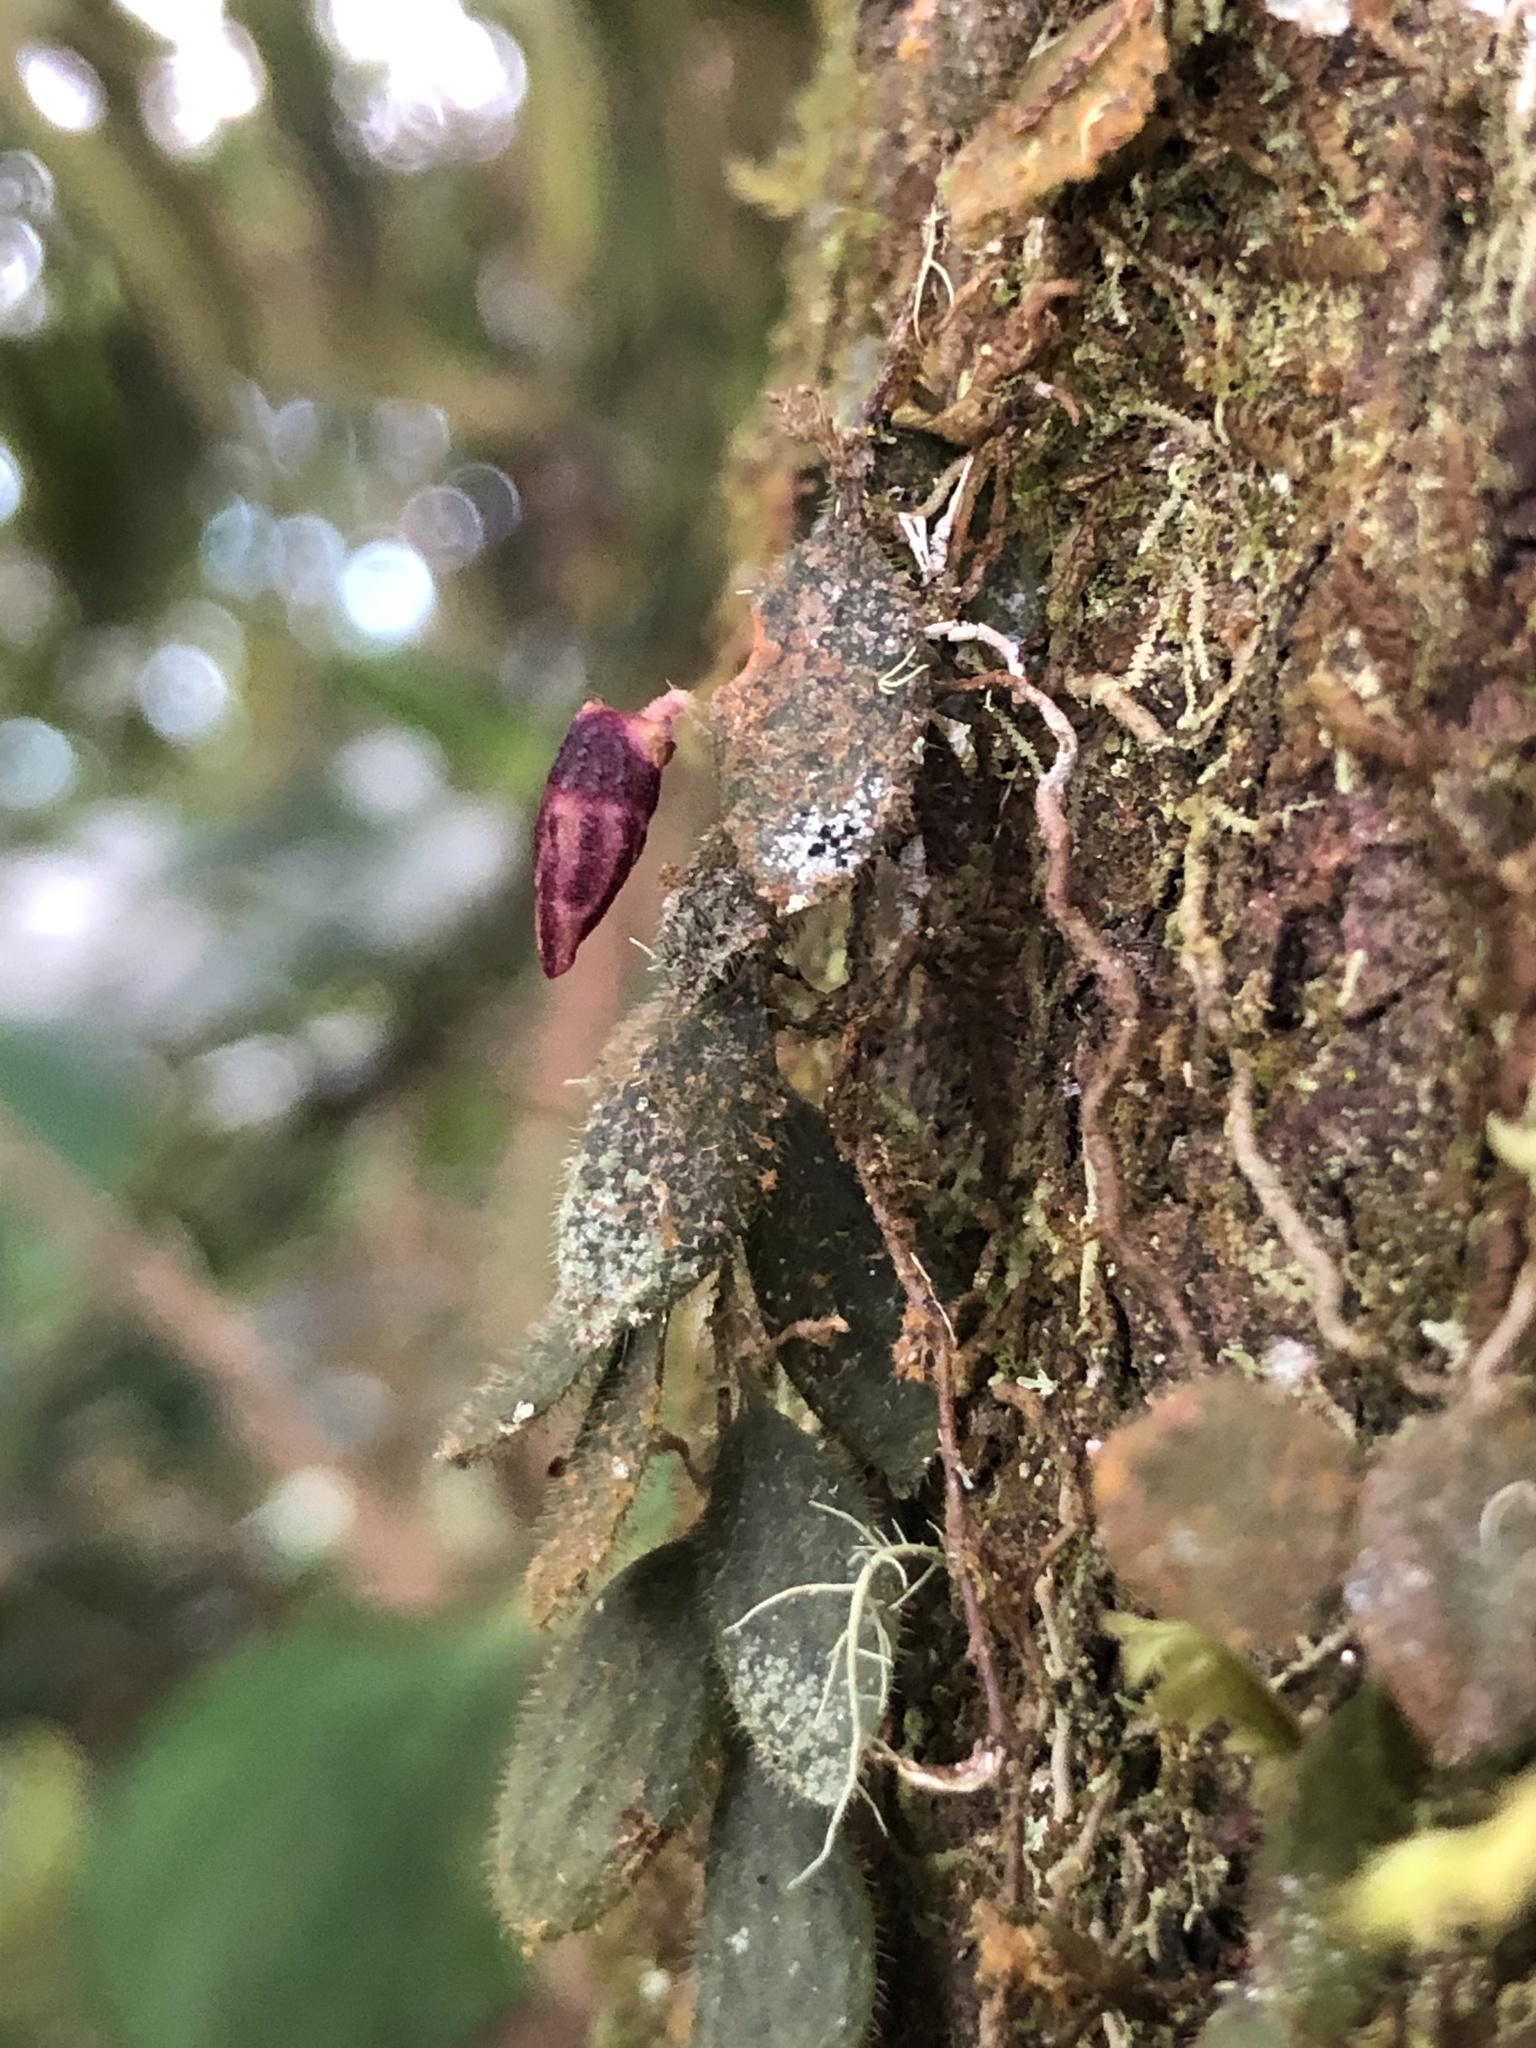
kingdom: Plantae
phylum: Tracheophyta
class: Liliopsida
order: Asparagales
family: Orchidaceae
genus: Andinia
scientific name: Andinia pilosella
